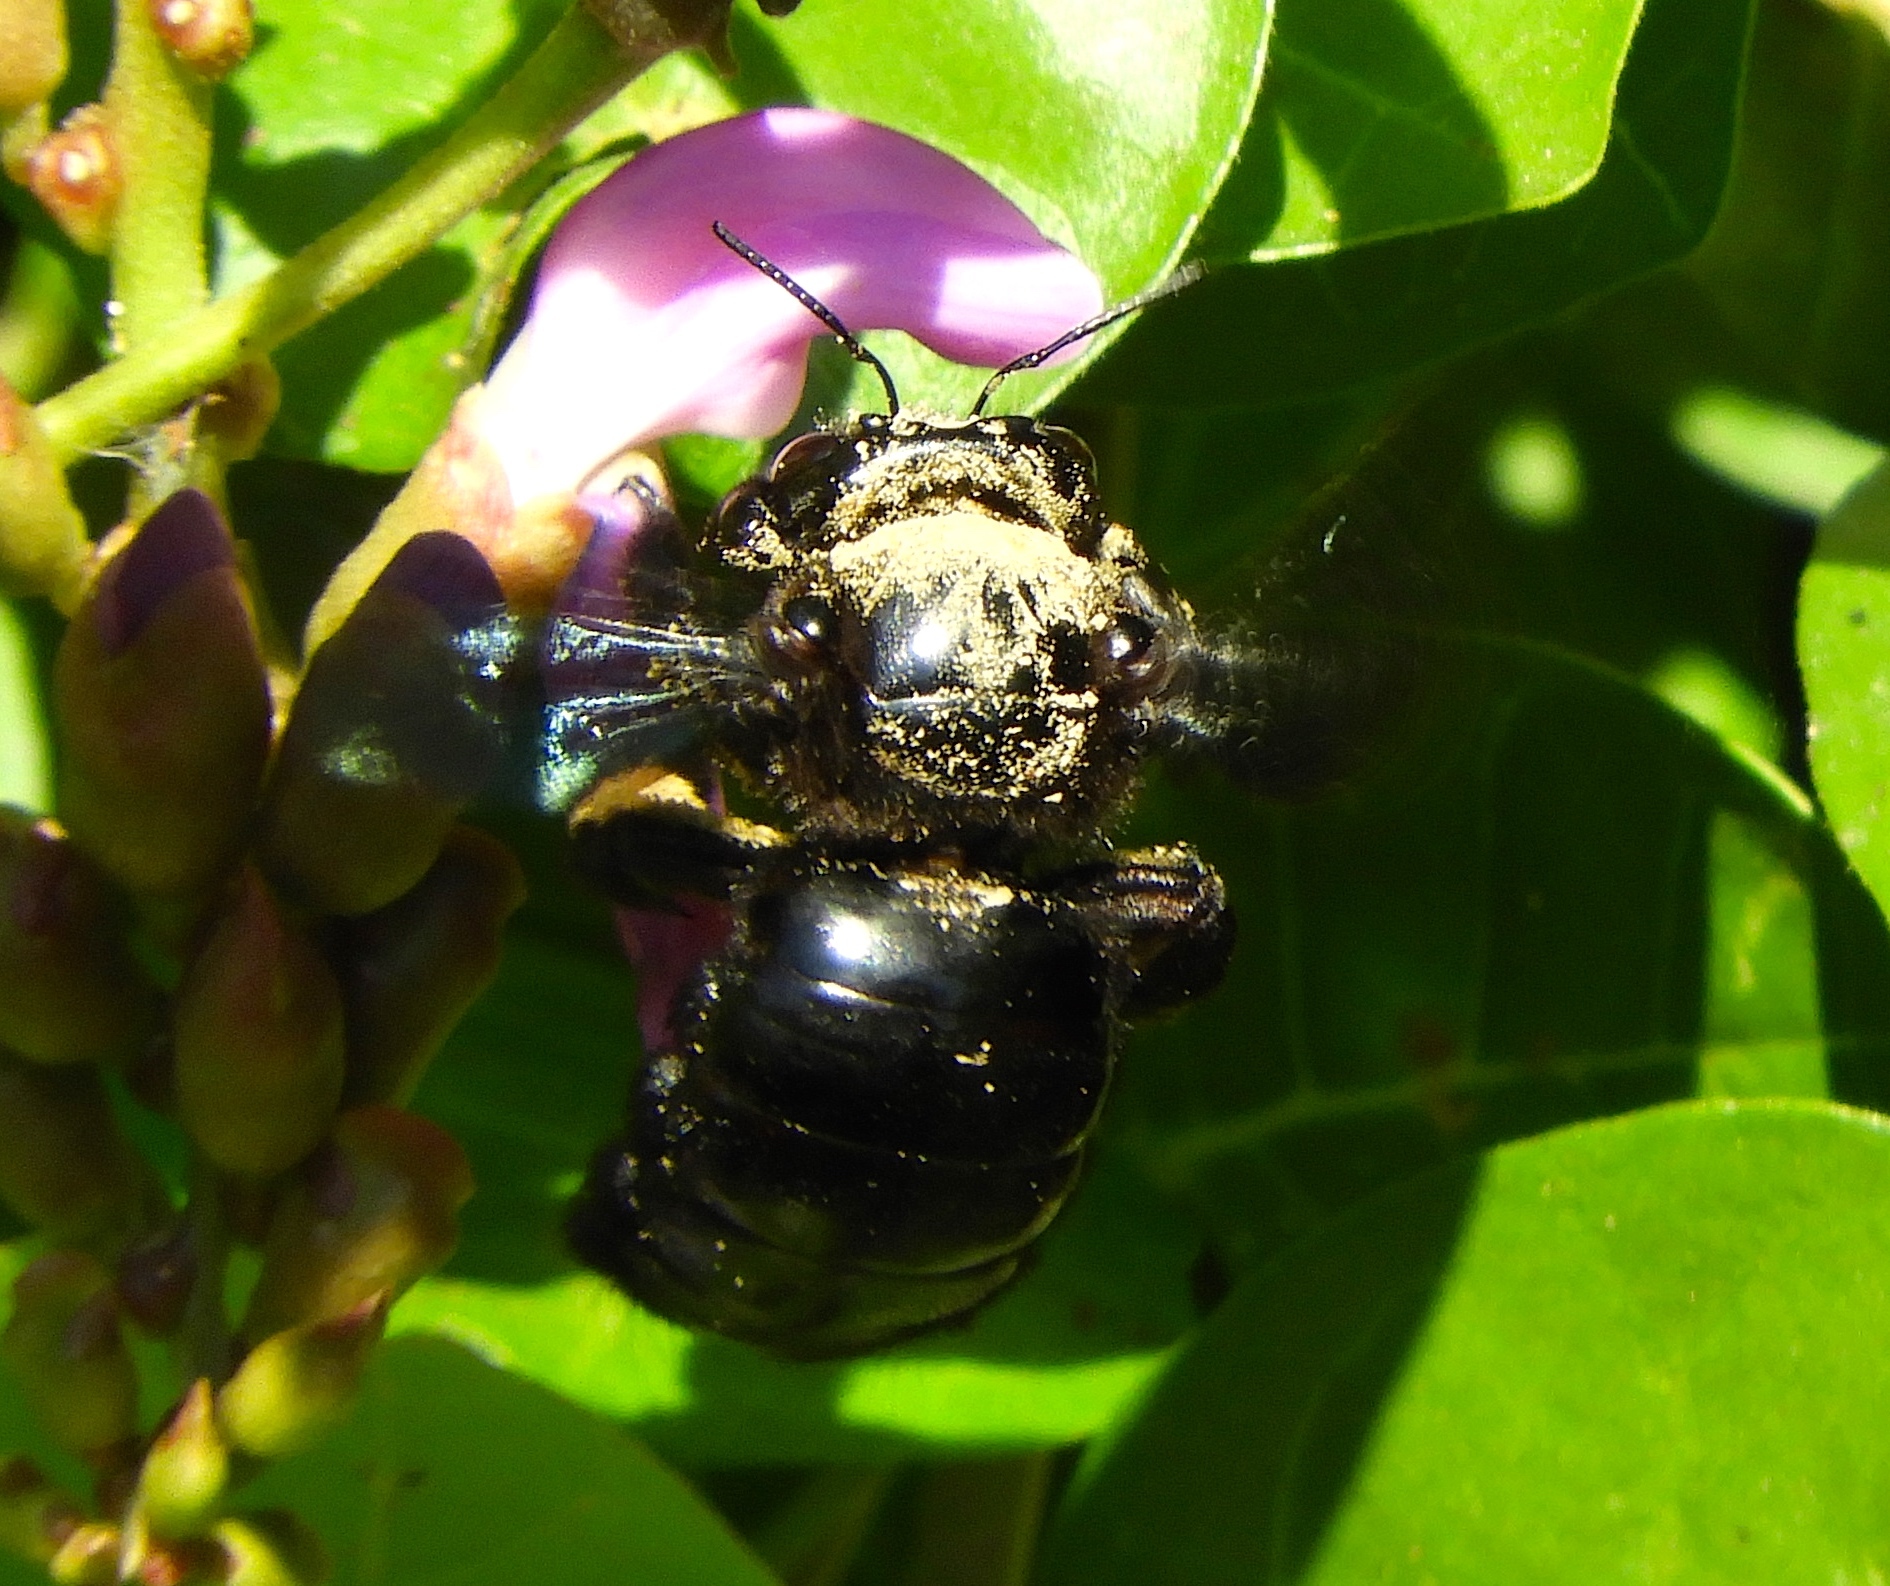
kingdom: Animalia
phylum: Arthropoda
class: Insecta
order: Hymenoptera
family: Apidae
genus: Xylocopa
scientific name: Xylocopa fimbriata
